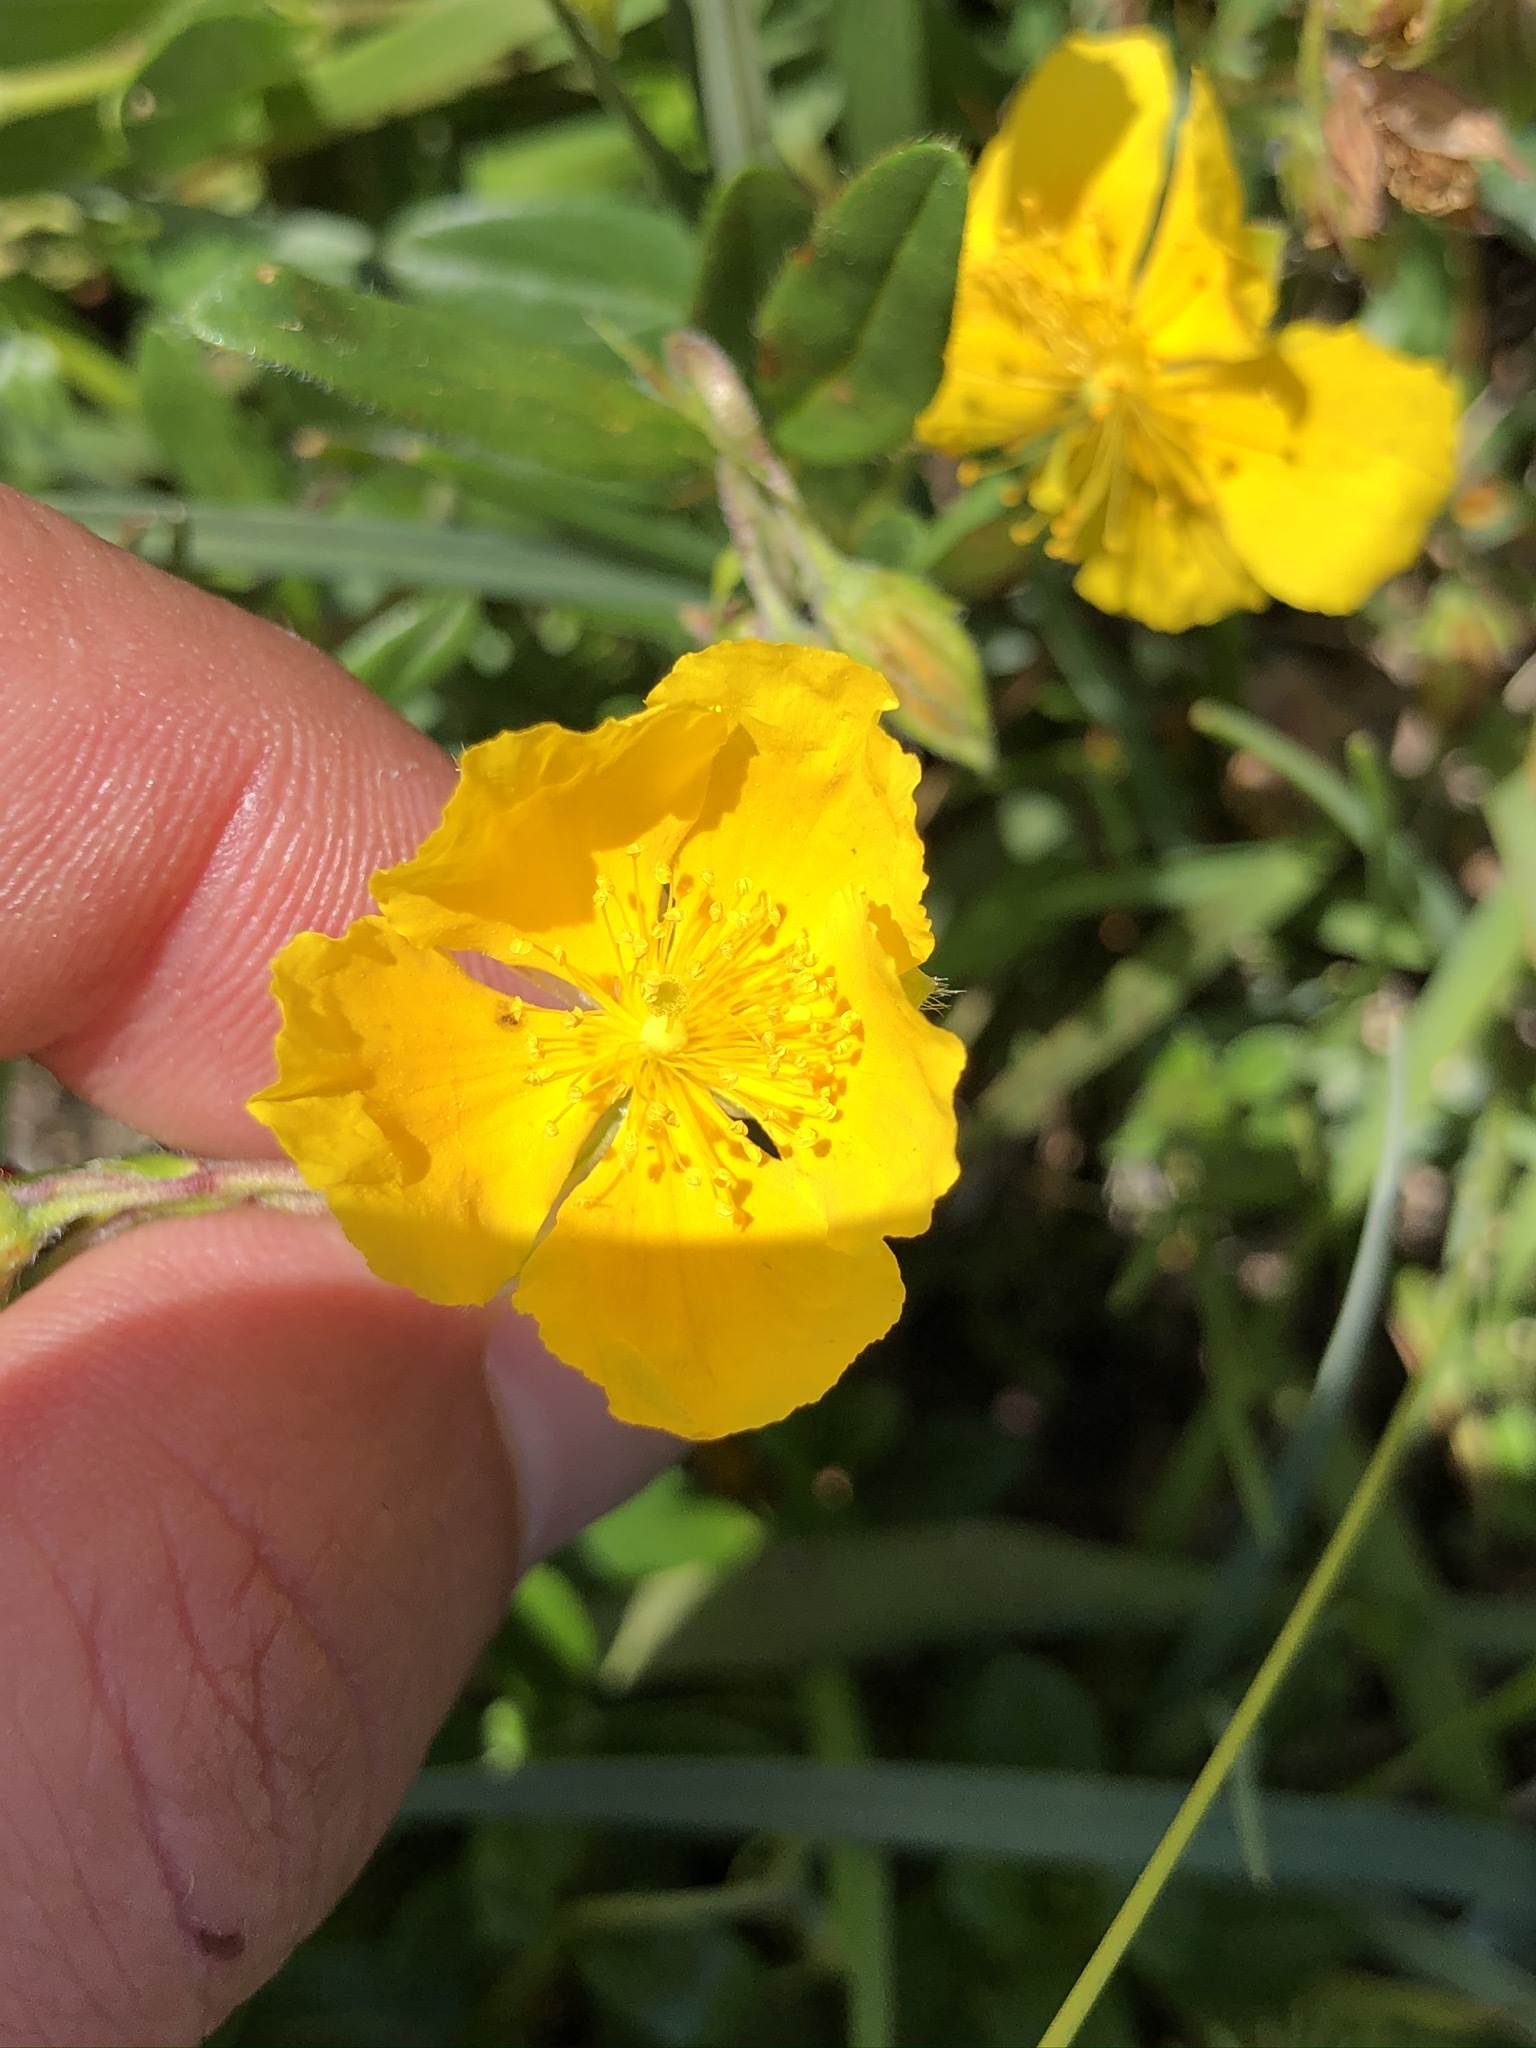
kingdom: Plantae
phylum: Tracheophyta
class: Magnoliopsida
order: Malvales
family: Cistaceae
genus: Helianthemum
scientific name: Helianthemum nummularium
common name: Common rock-rose
